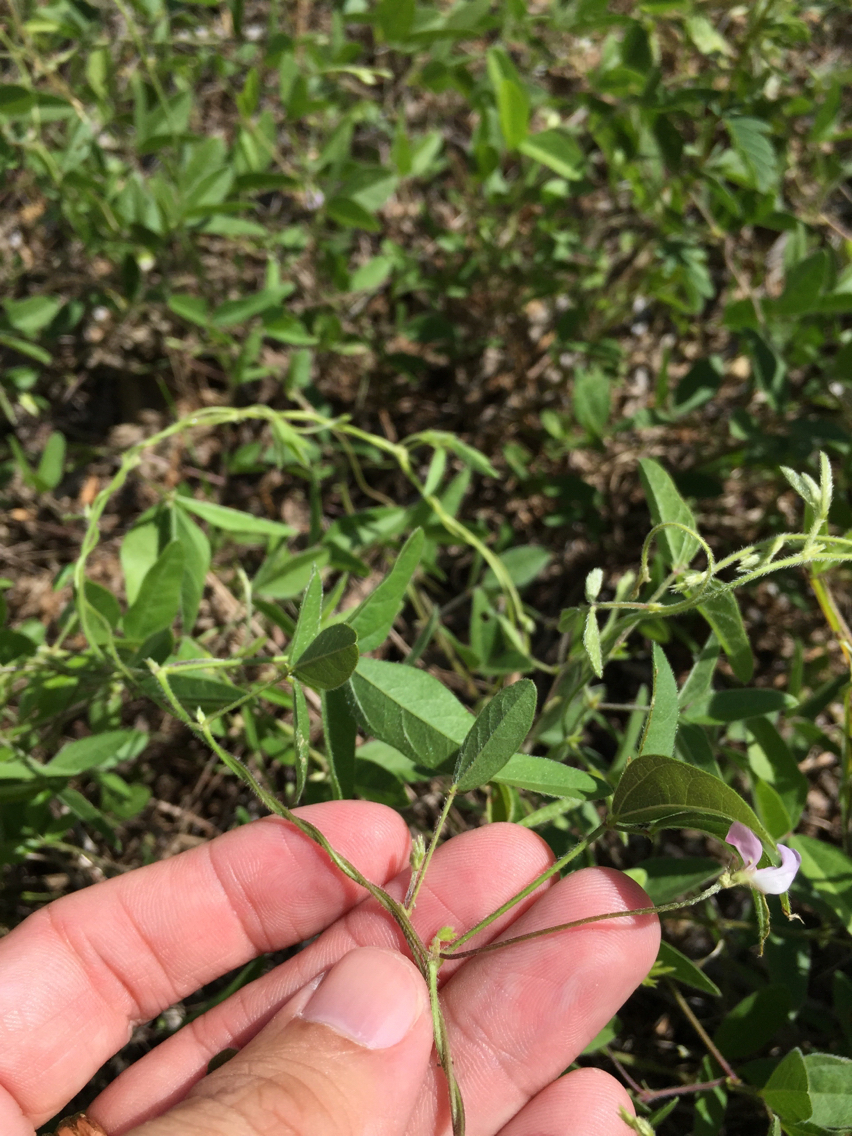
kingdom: Plantae
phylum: Tracheophyta
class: Magnoliopsida
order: Fabales
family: Fabaceae
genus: Strophostyles
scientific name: Strophostyles leiosperma
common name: Smooth-seed wild bean
